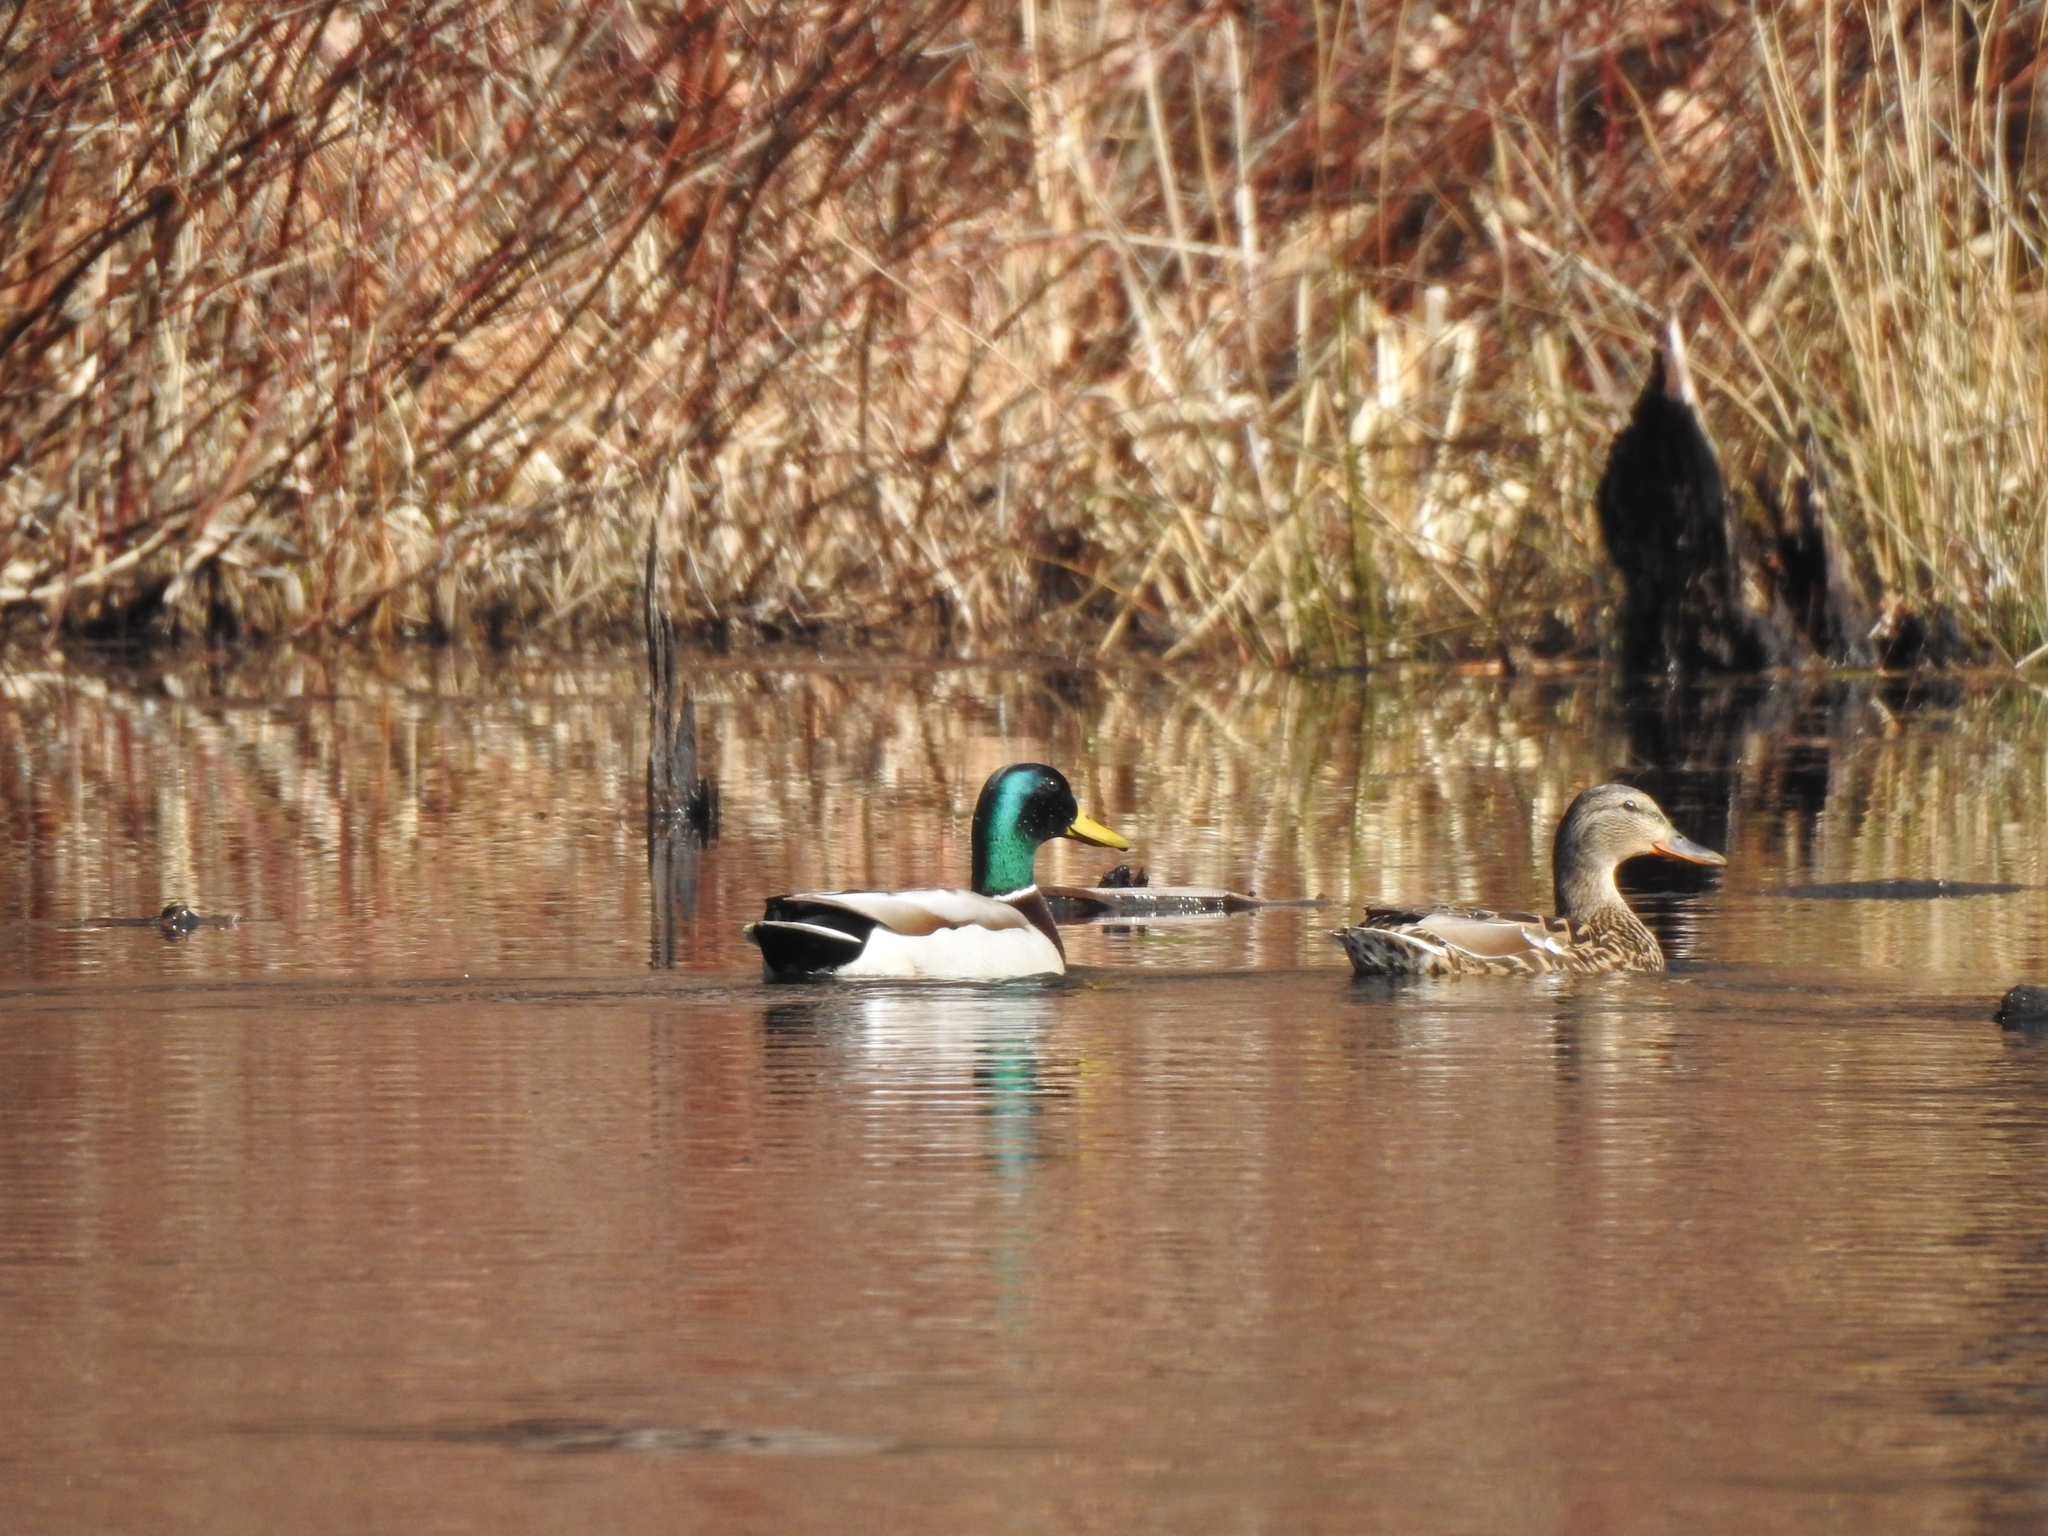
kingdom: Animalia
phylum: Chordata
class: Aves
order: Anseriformes
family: Anatidae
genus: Anas
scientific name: Anas platyrhynchos
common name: Mallard
